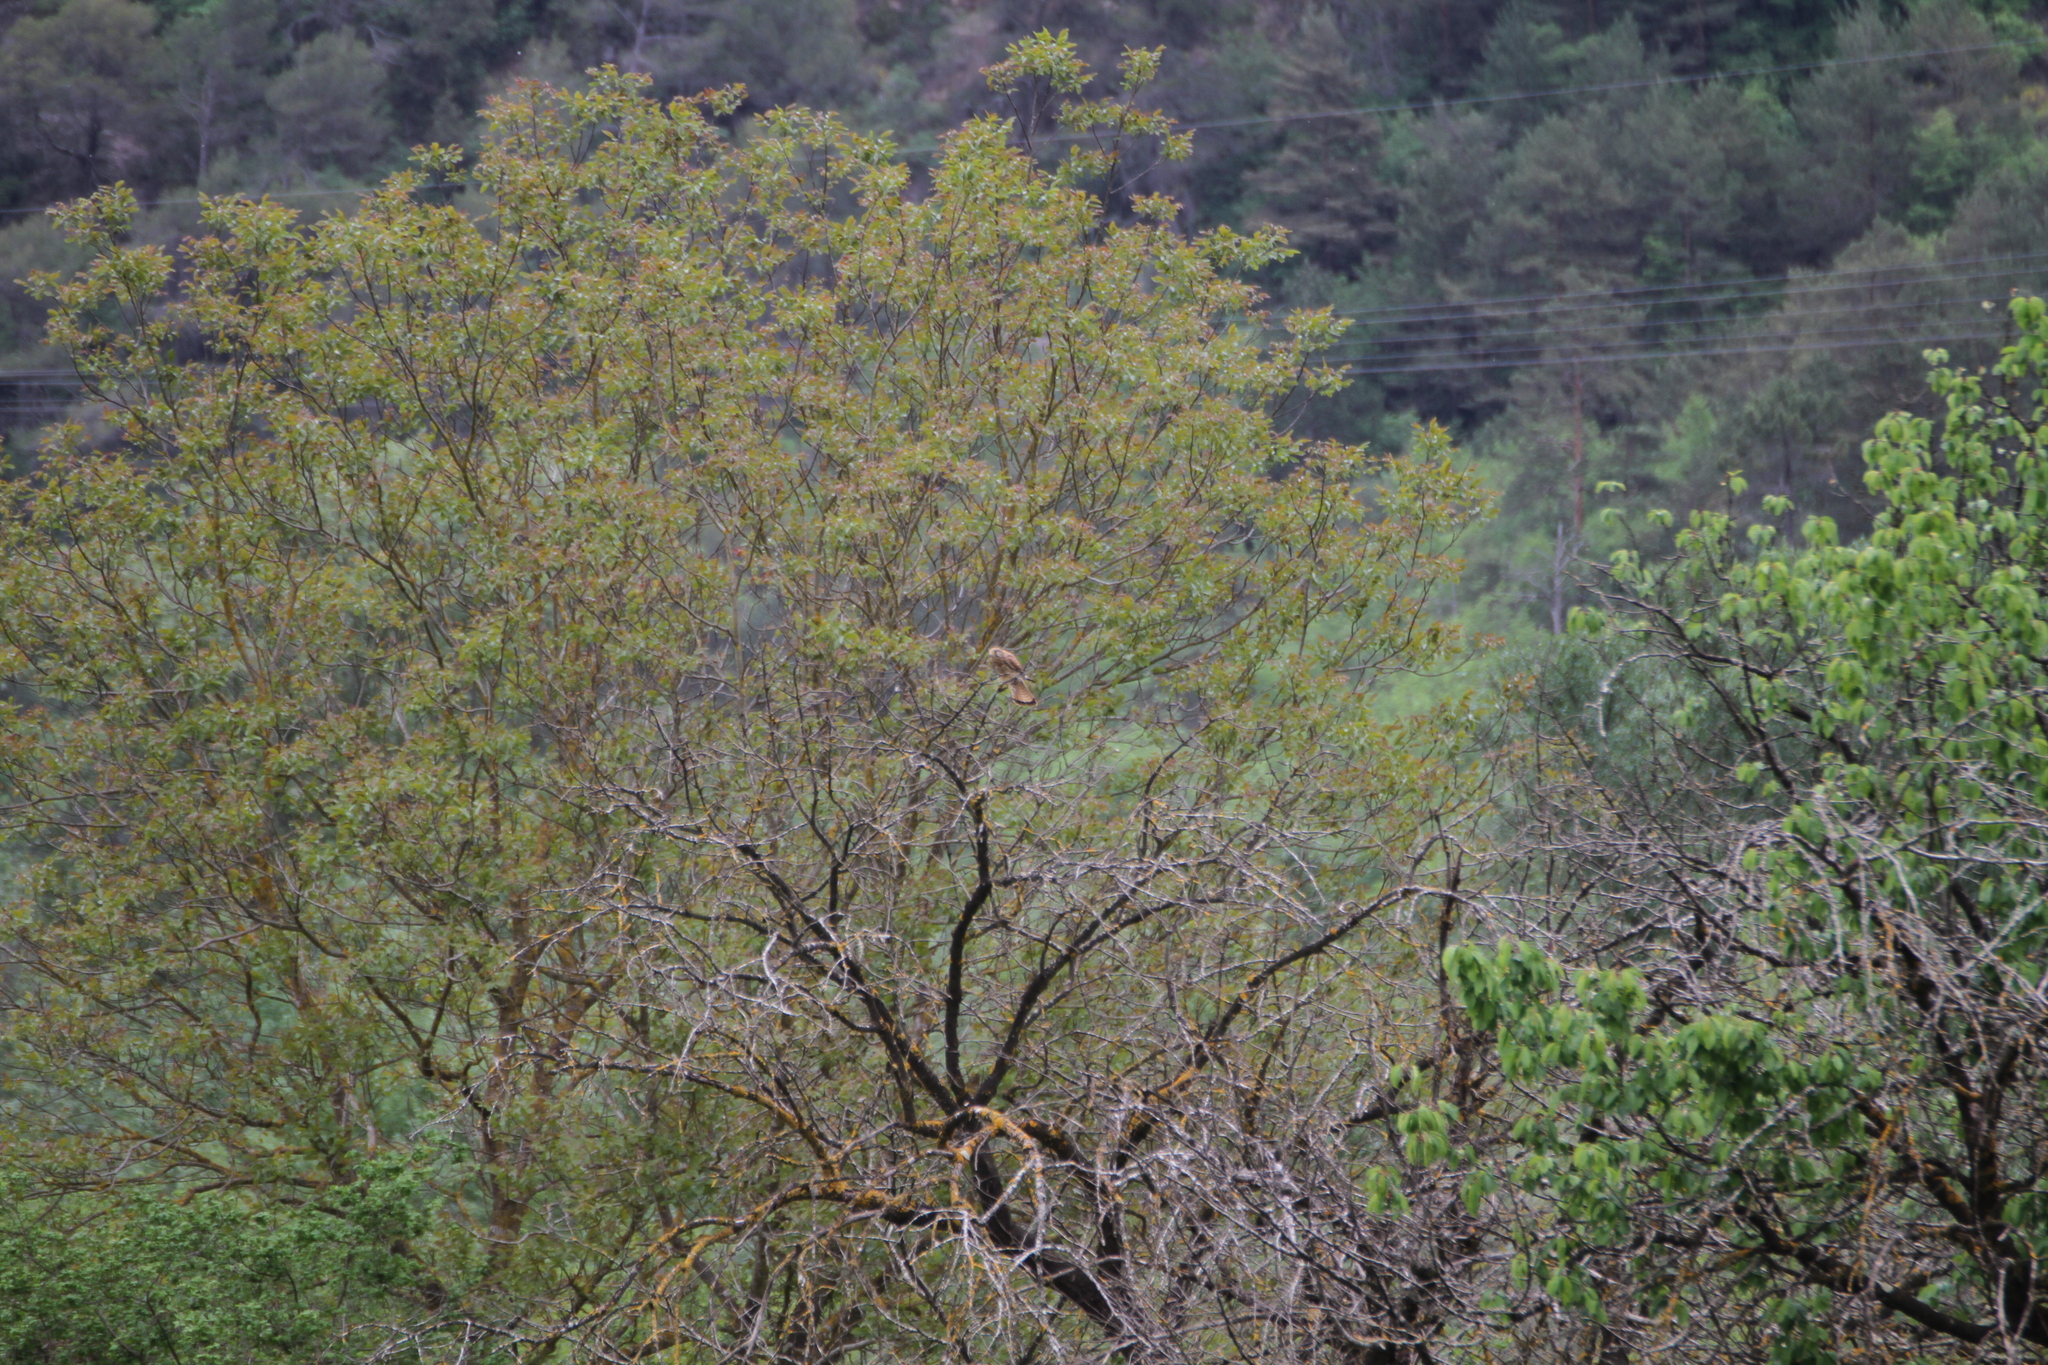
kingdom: Animalia
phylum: Chordata
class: Aves
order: Falconiformes
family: Falconidae
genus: Falco
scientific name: Falco tinnunculus
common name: Common kestrel
